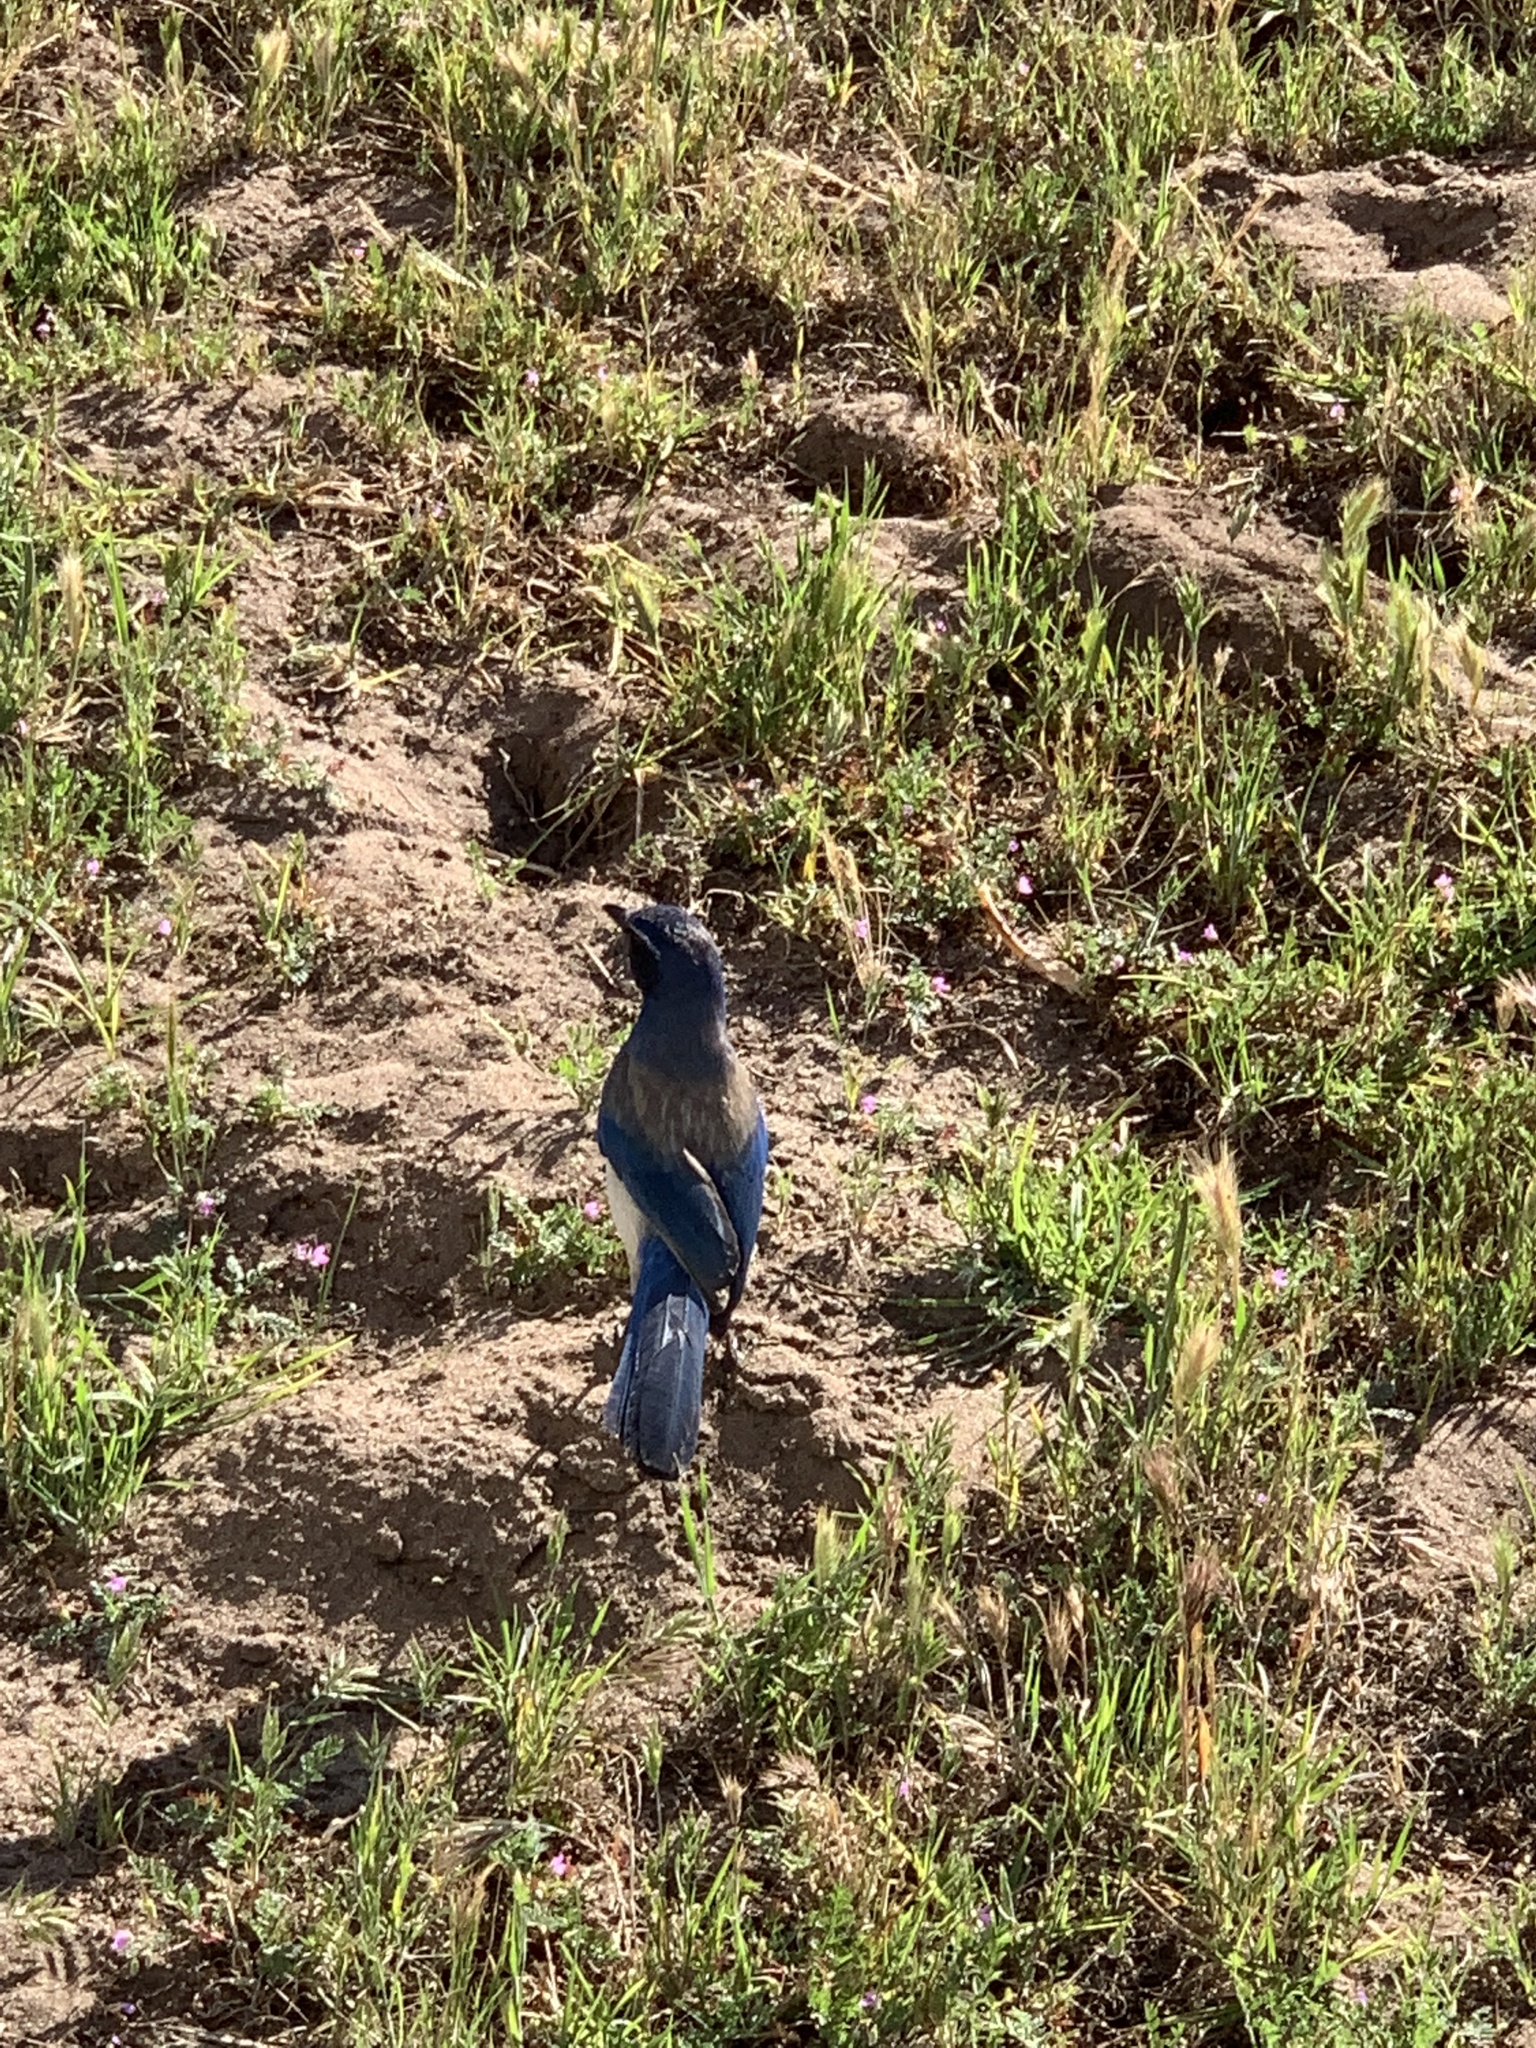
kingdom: Animalia
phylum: Chordata
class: Aves
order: Passeriformes
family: Corvidae
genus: Aphelocoma
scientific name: Aphelocoma californica
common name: California scrub-jay
